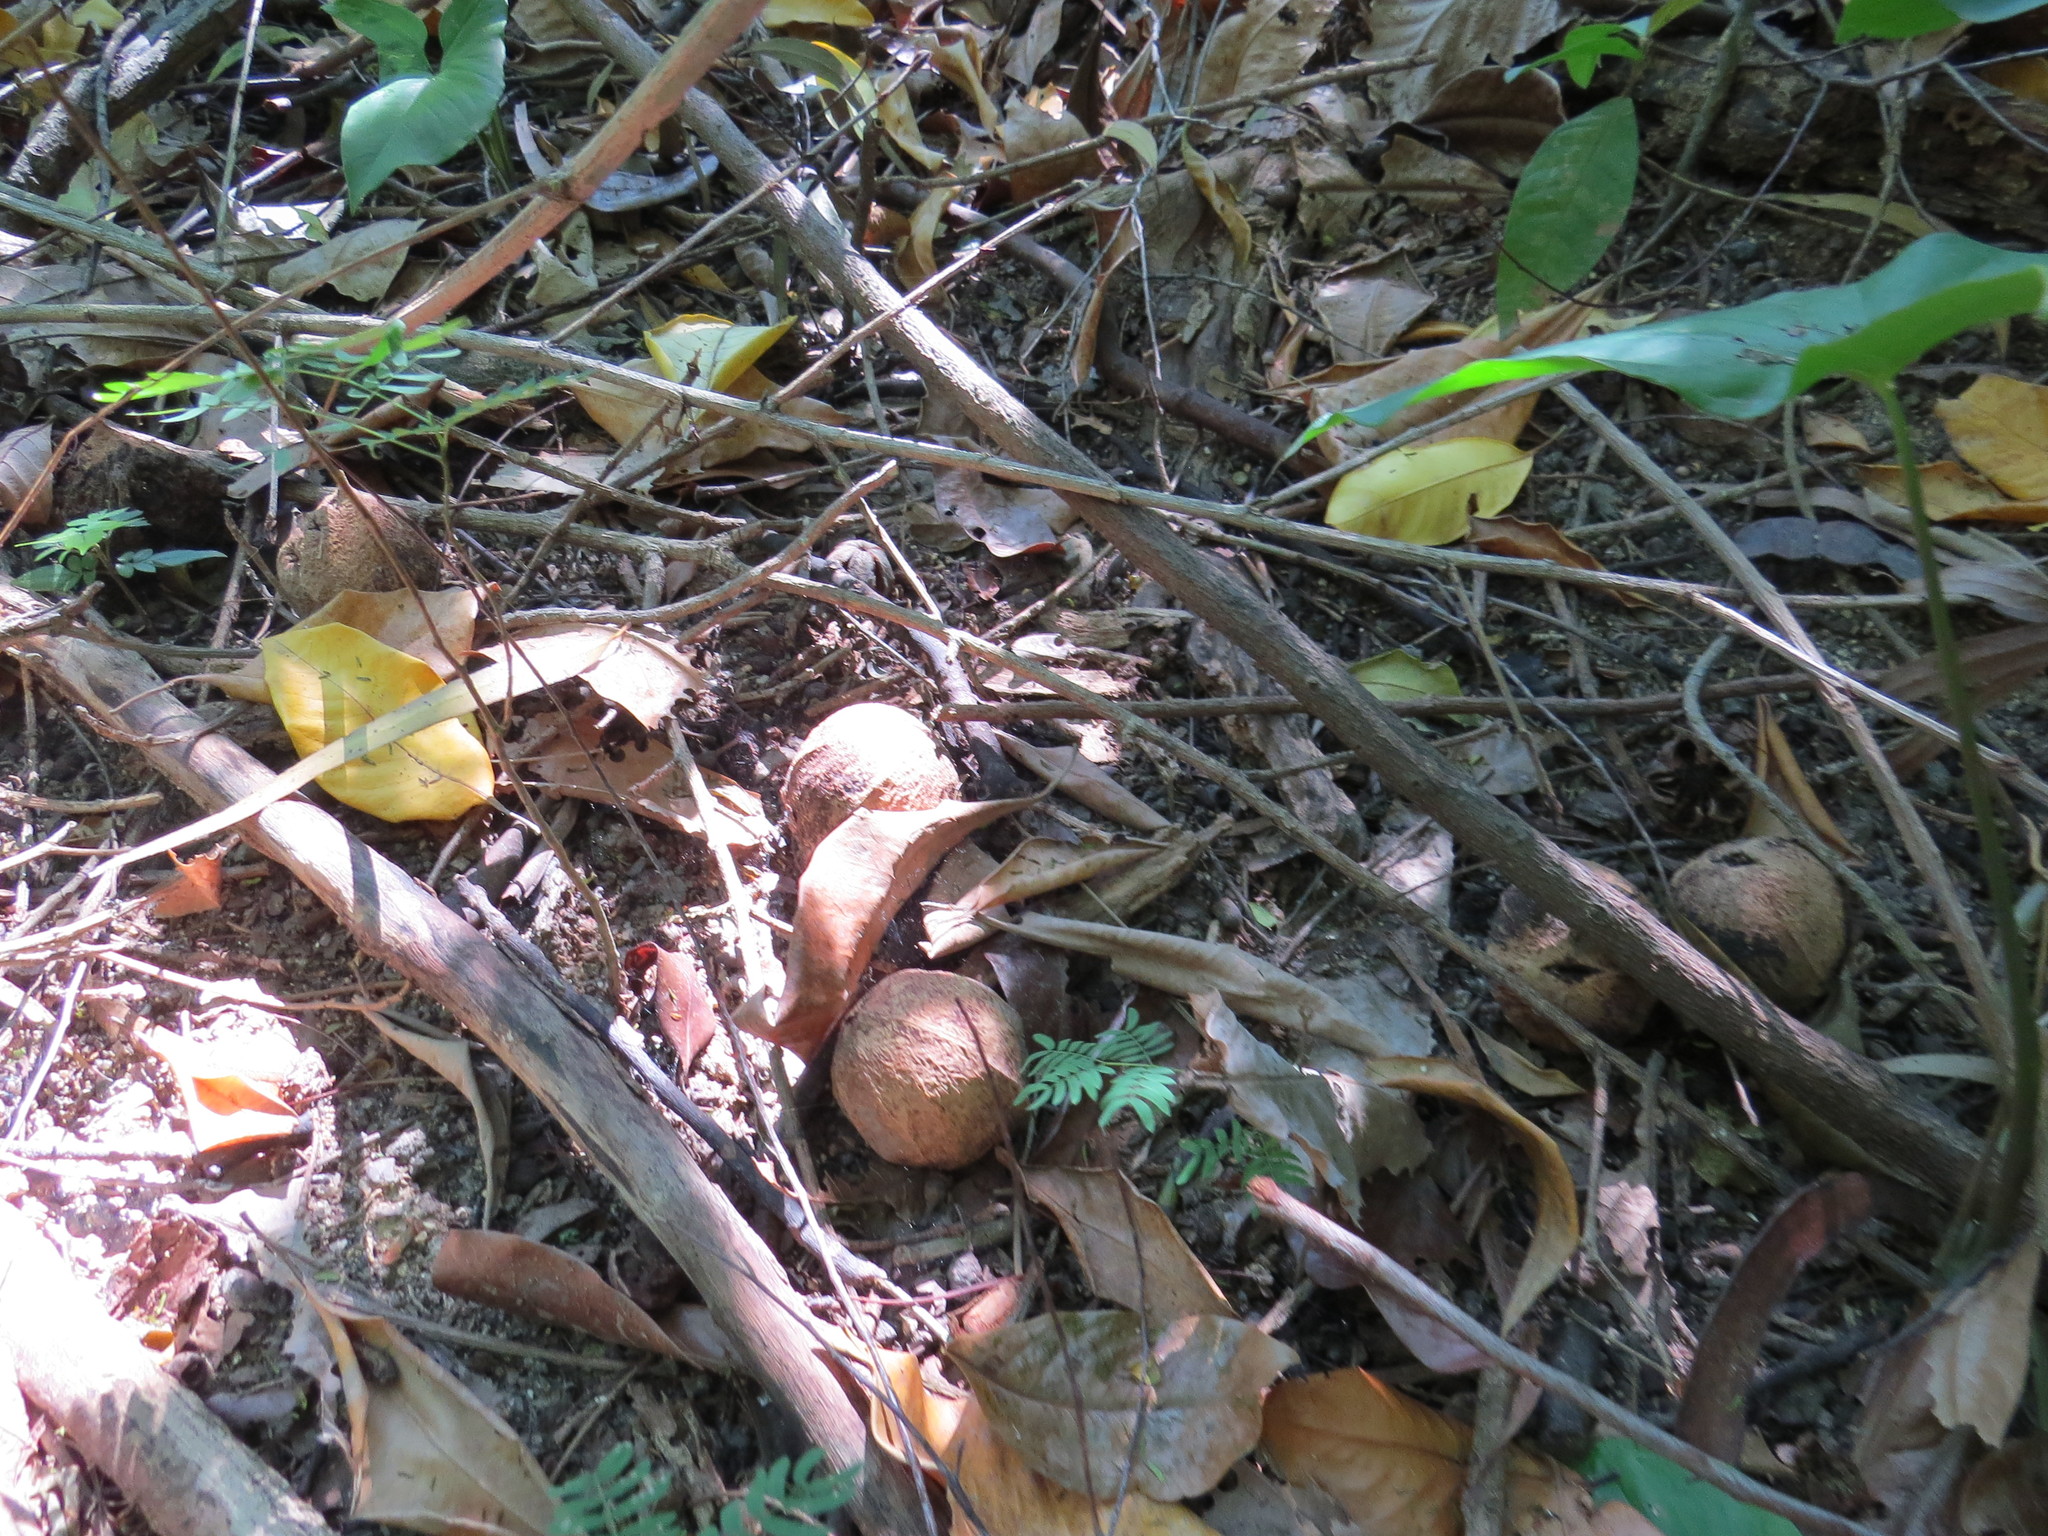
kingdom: Plantae
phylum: Tracheophyta
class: Magnoliopsida
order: Malpighiales
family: Euphorbiaceae
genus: Joannesia
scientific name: Joannesia princeps
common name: Arara nut-tree
